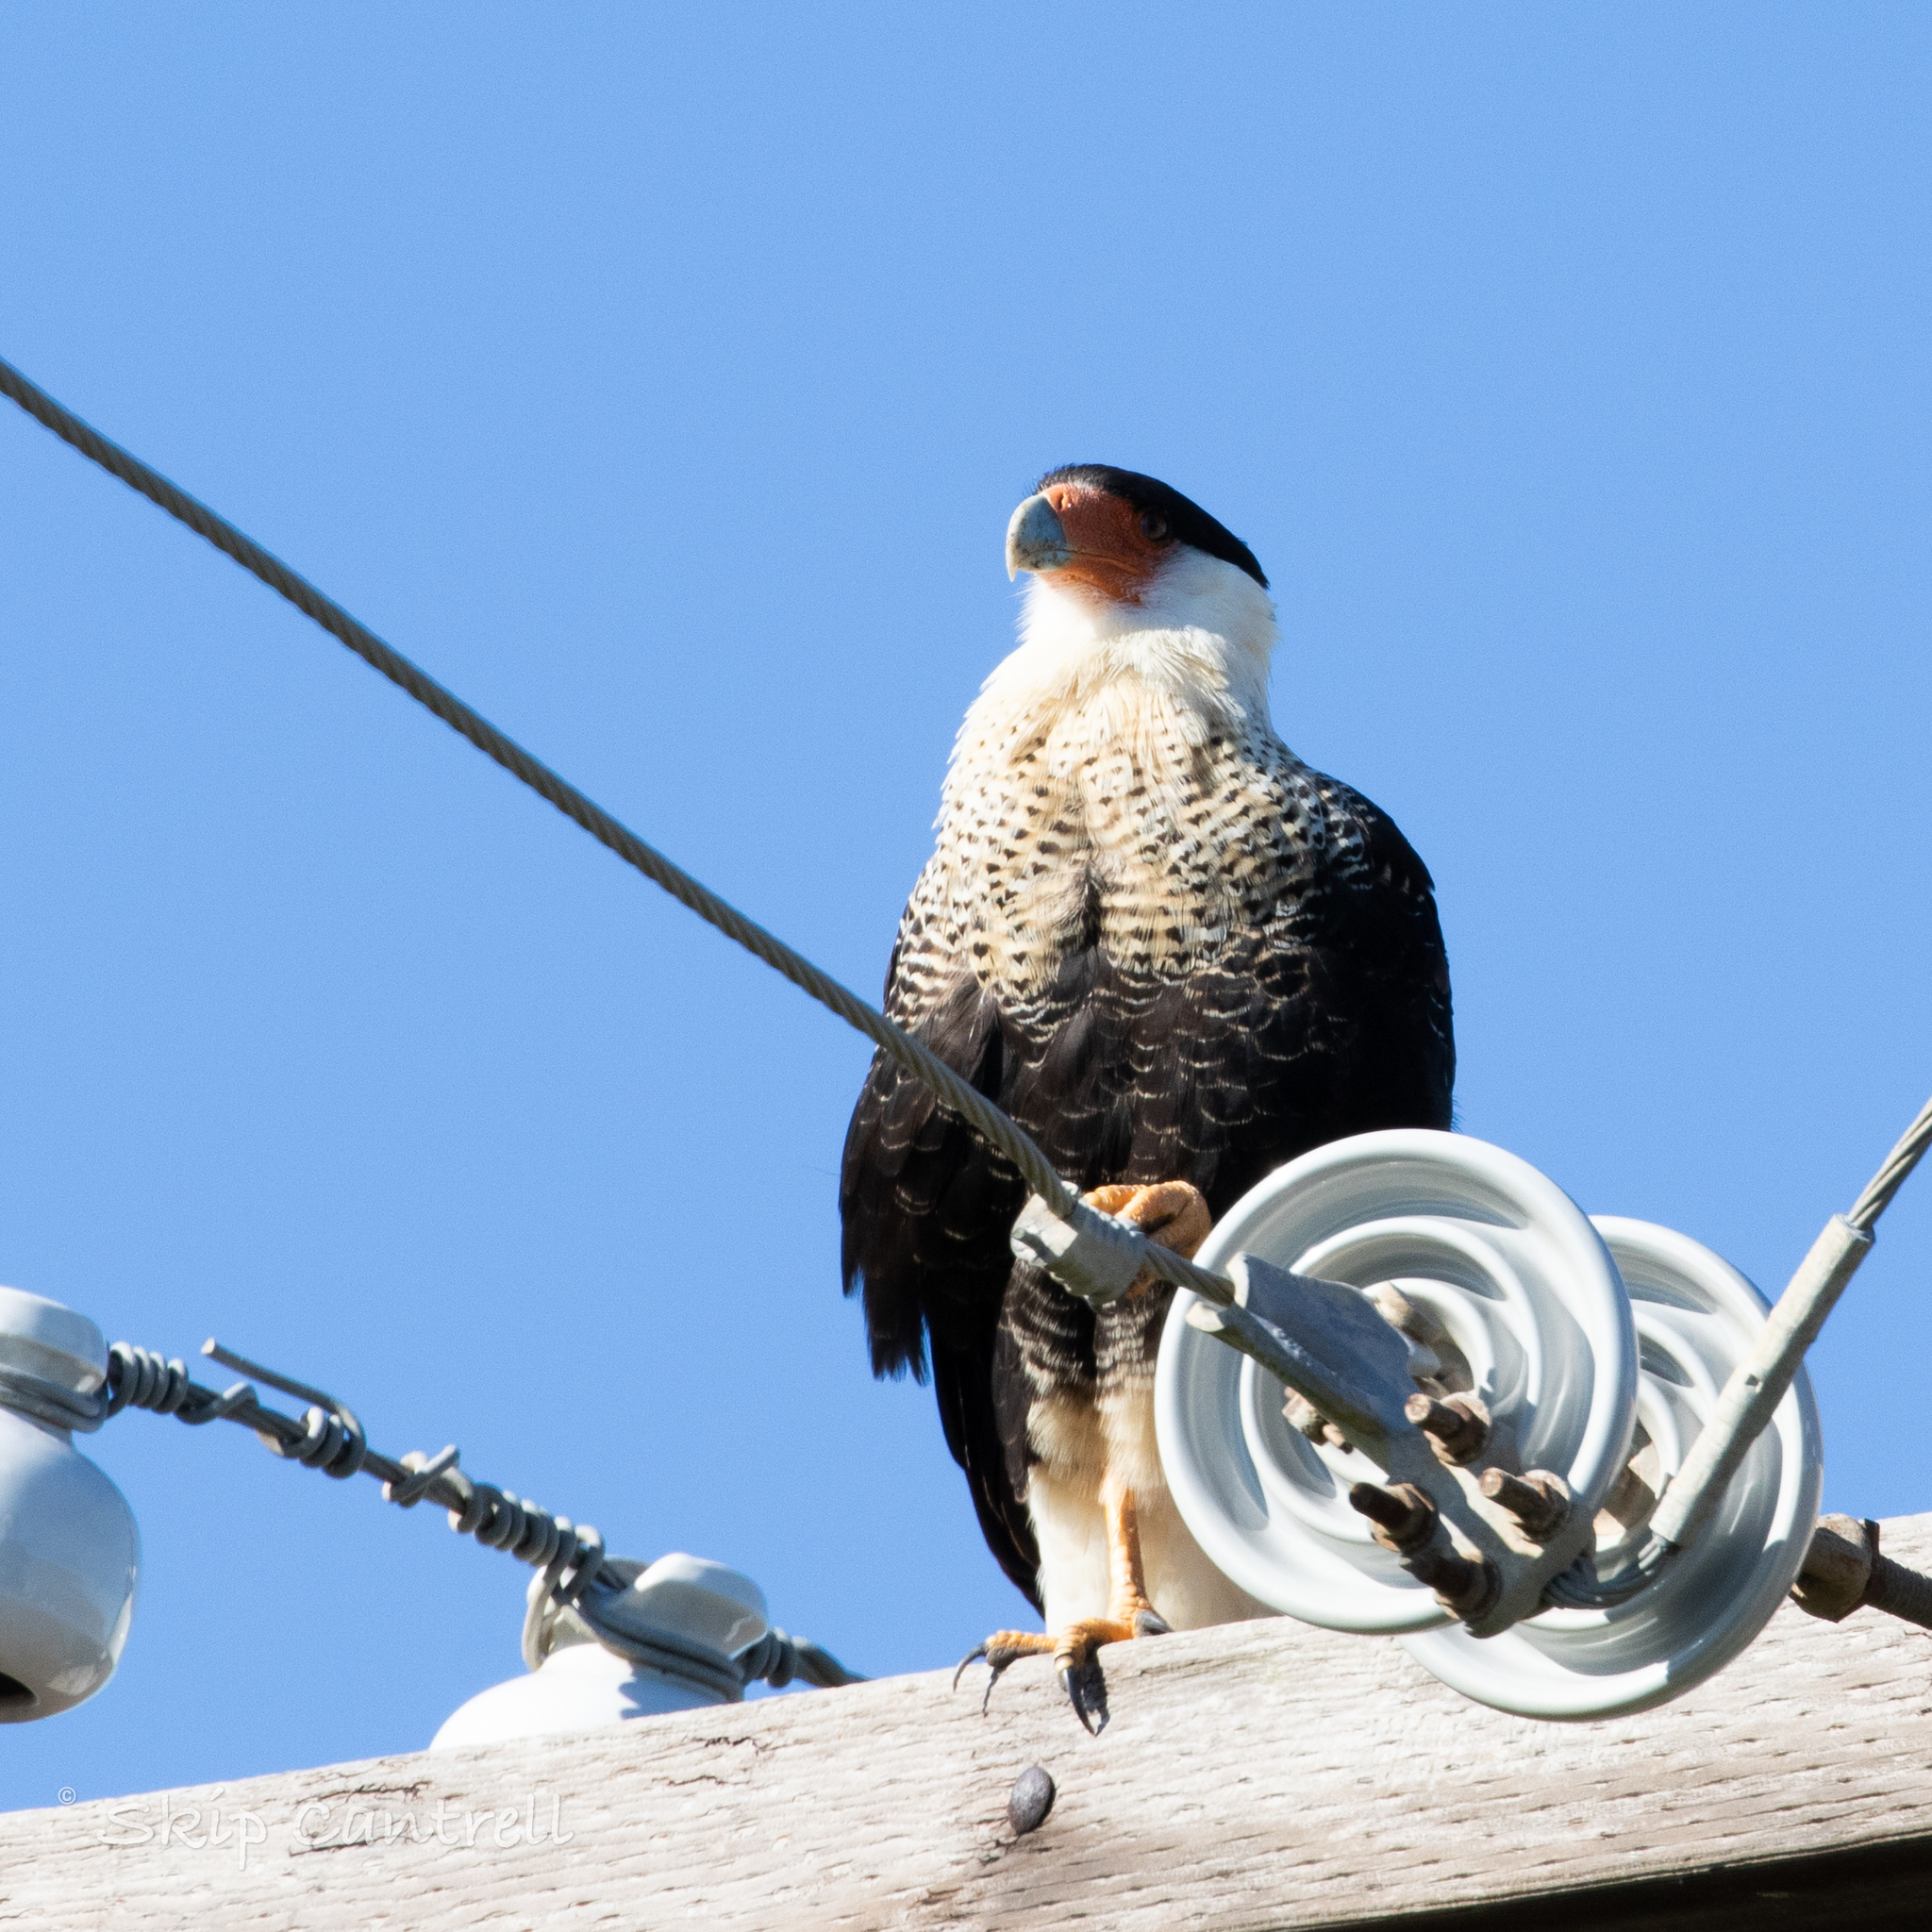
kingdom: Animalia
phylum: Chordata
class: Aves
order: Falconiformes
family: Falconidae
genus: Caracara
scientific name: Caracara plancus
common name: Southern caracara
